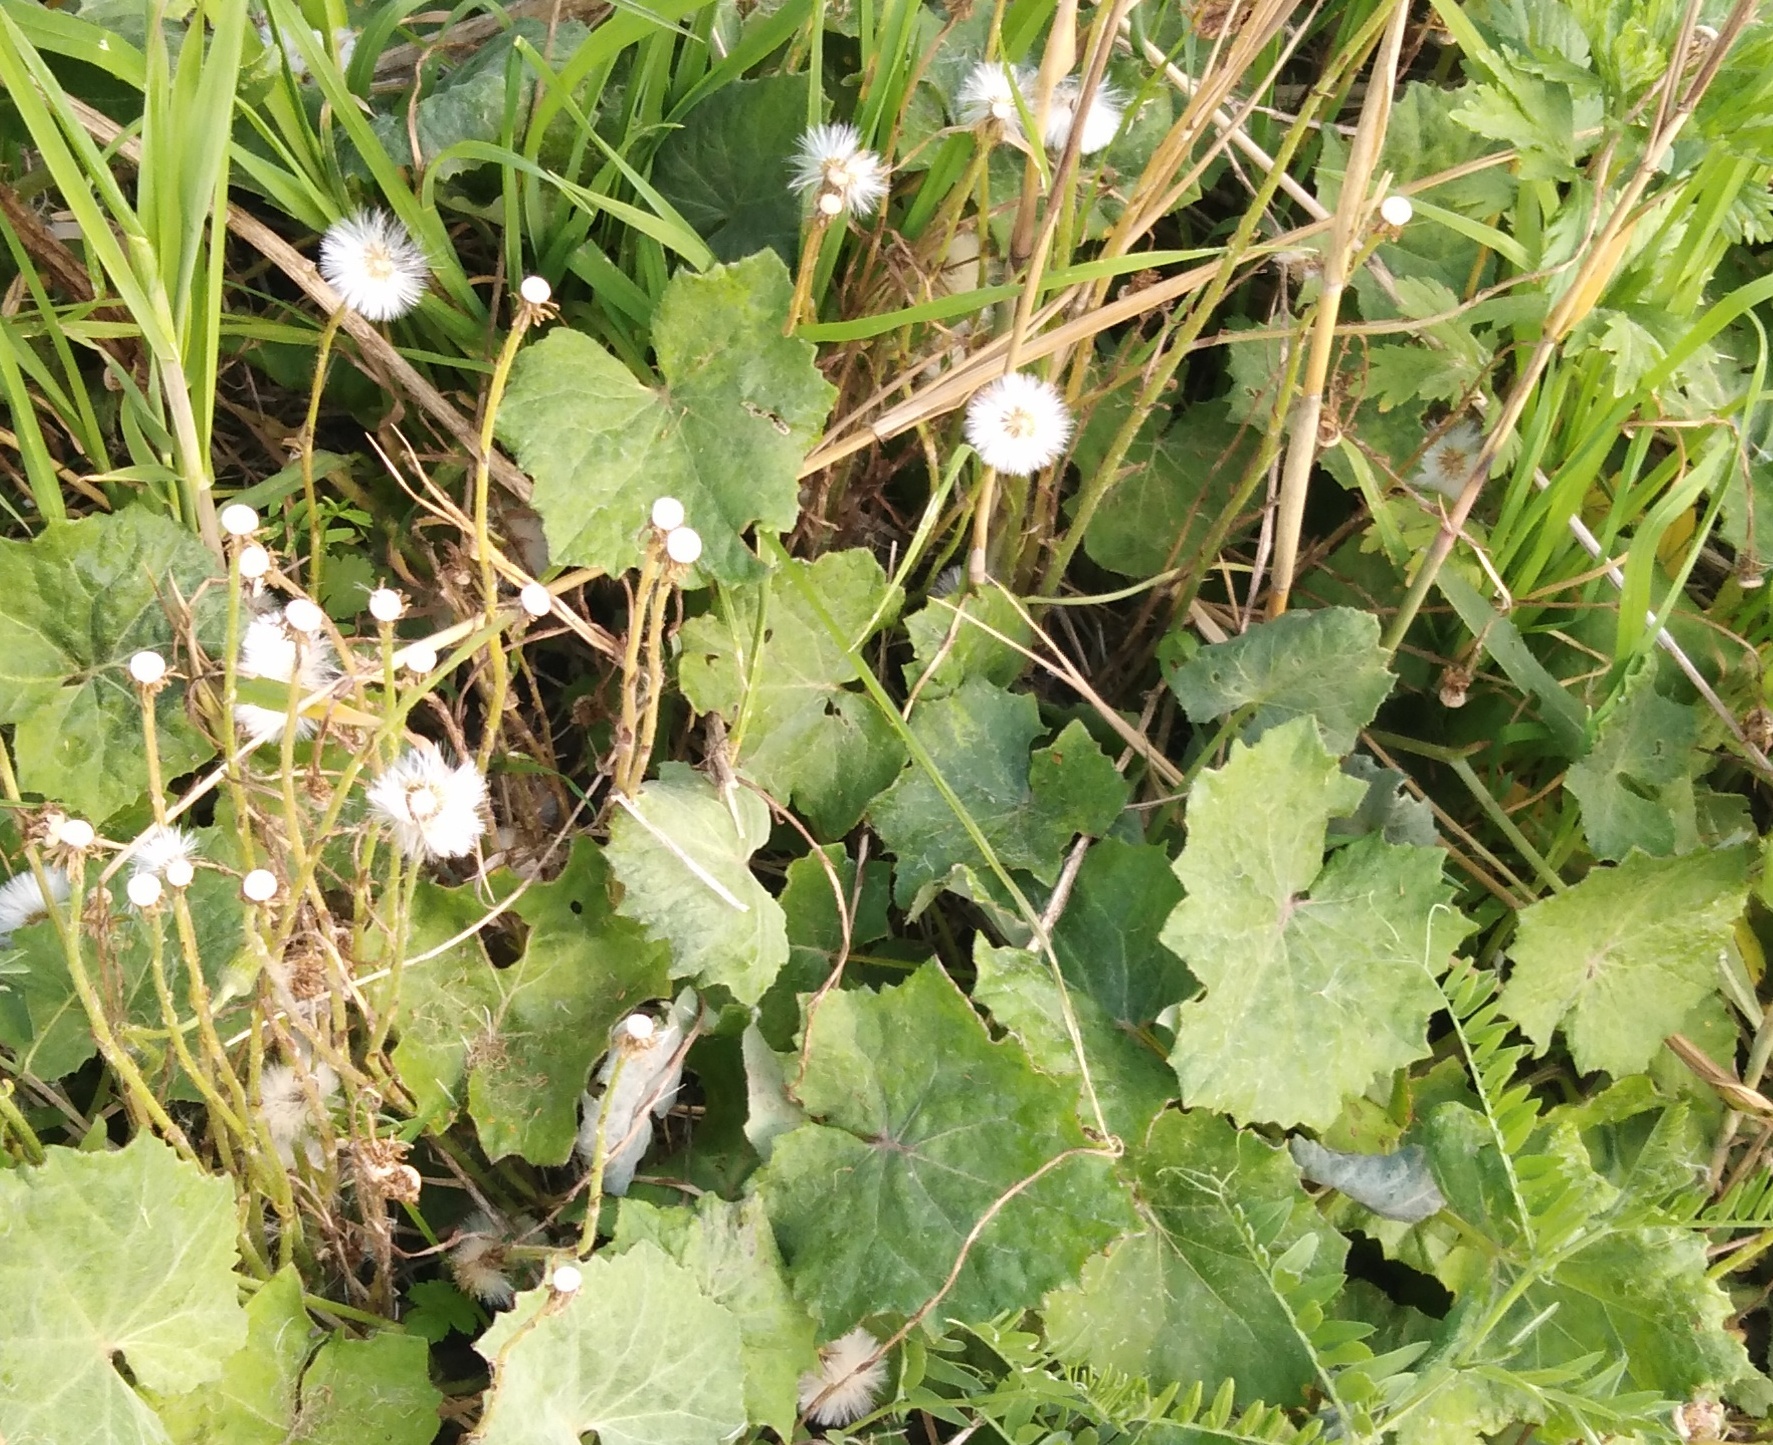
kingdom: Plantae
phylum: Tracheophyta
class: Magnoliopsida
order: Asterales
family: Asteraceae
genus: Tussilago
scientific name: Tussilago farfara
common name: Coltsfoot
